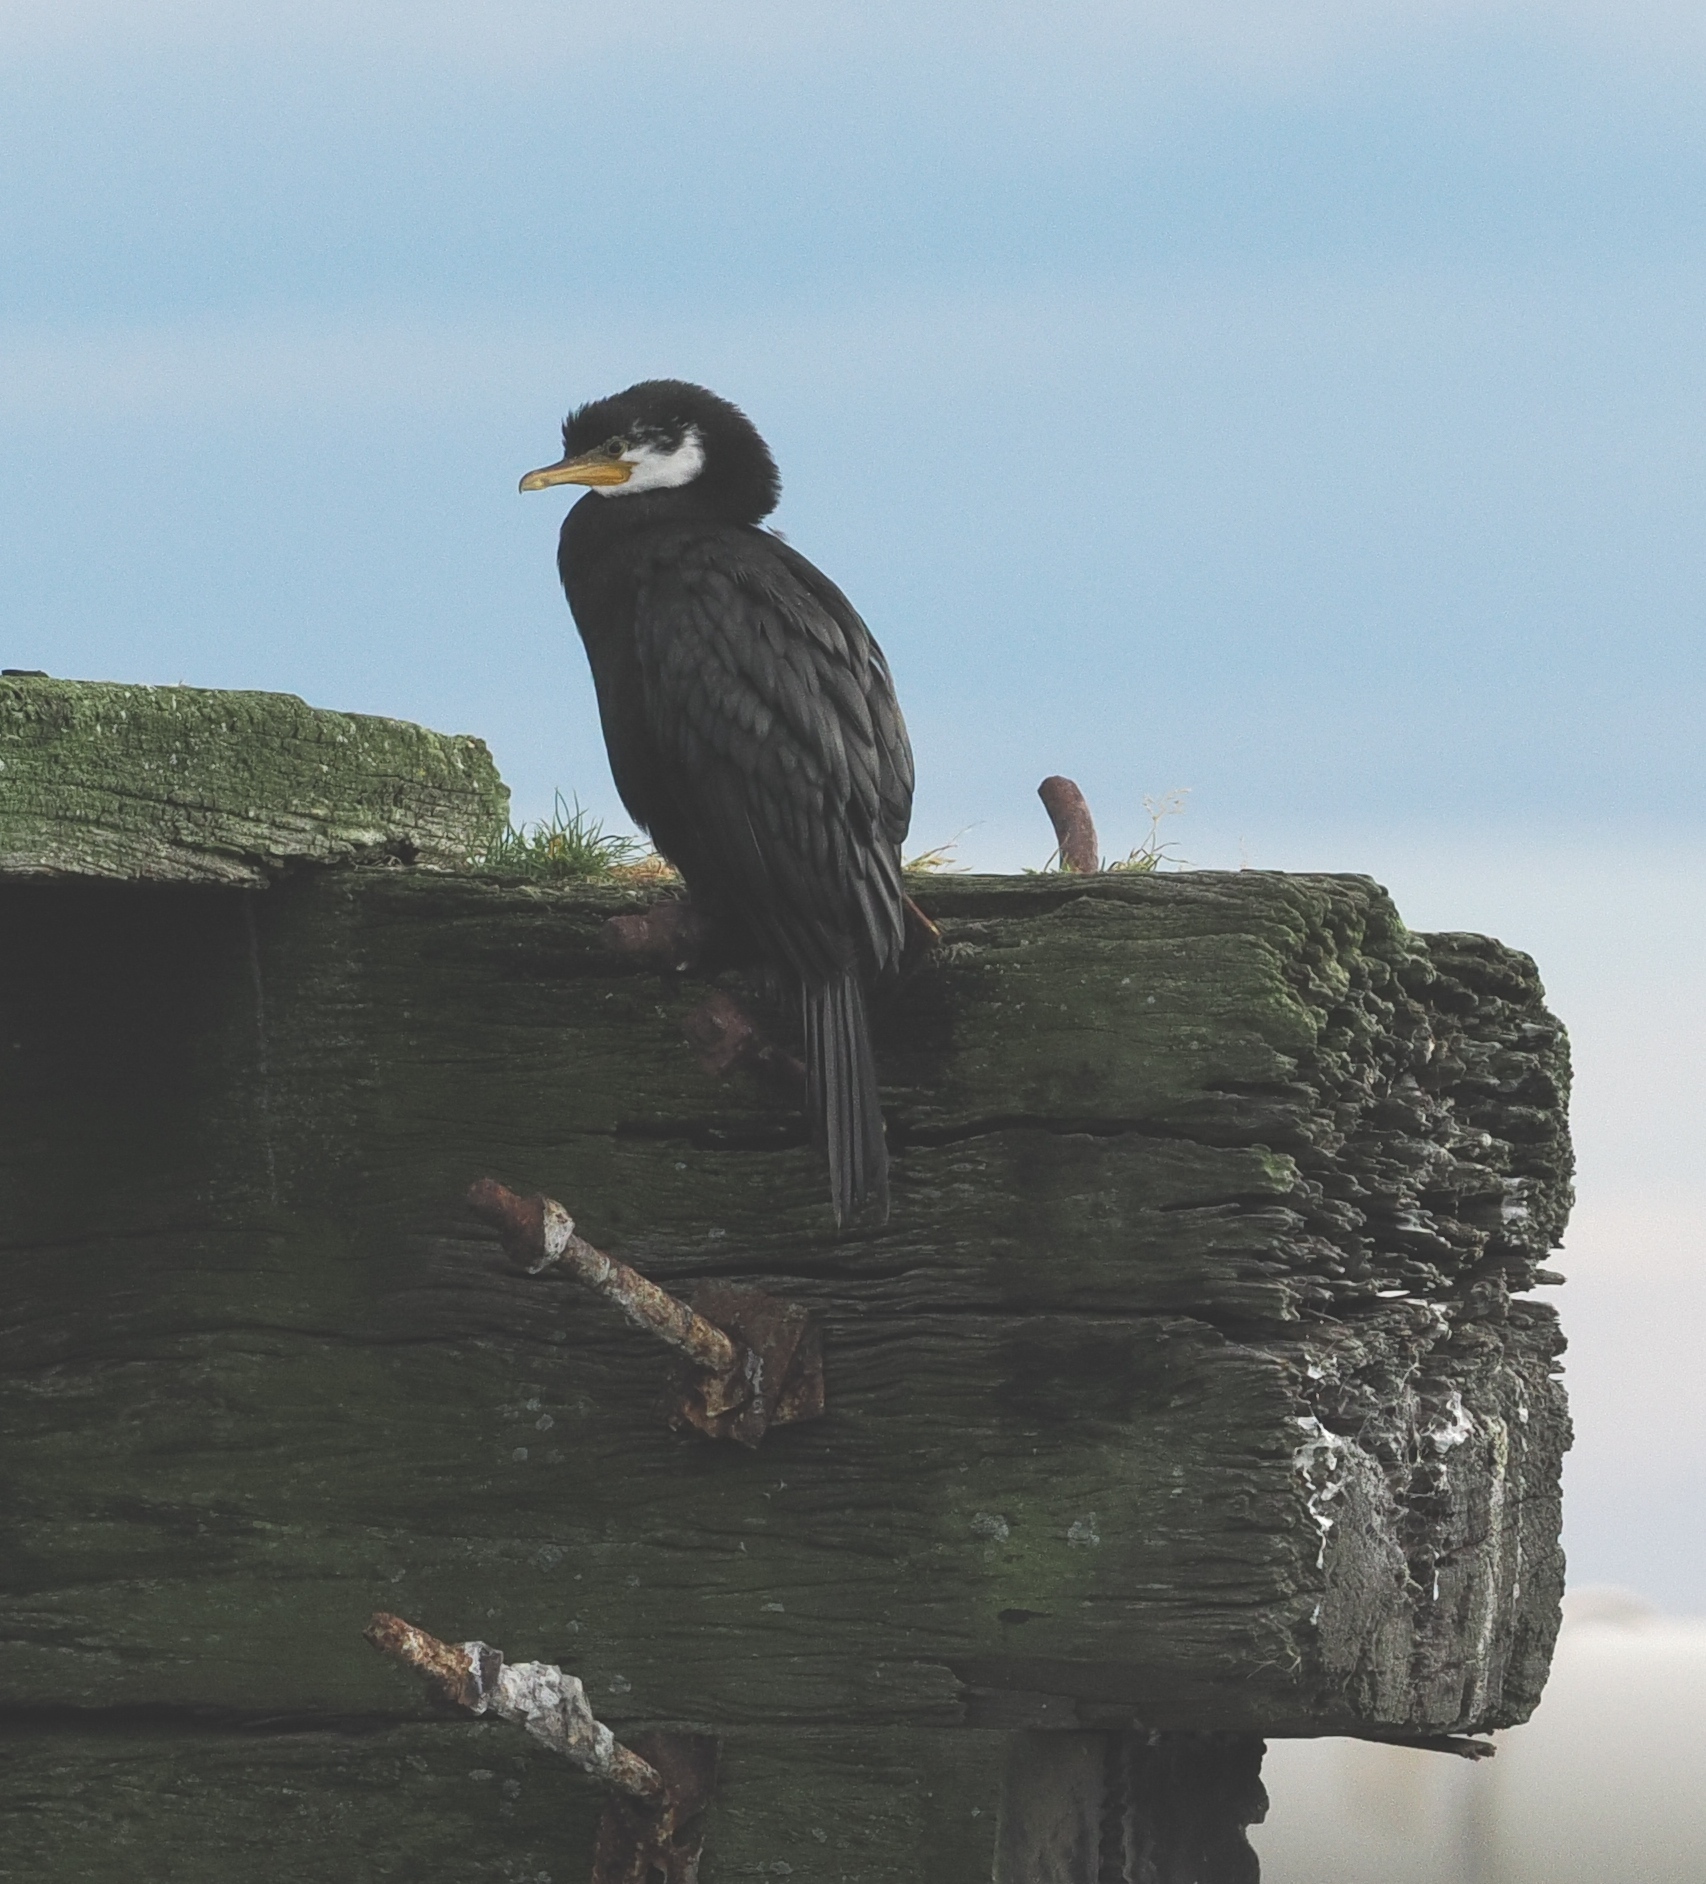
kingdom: Animalia
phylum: Chordata
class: Aves
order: Suliformes
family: Phalacrocoracidae
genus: Microcarbo
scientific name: Microcarbo melanoleucos
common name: Little pied cormorant
